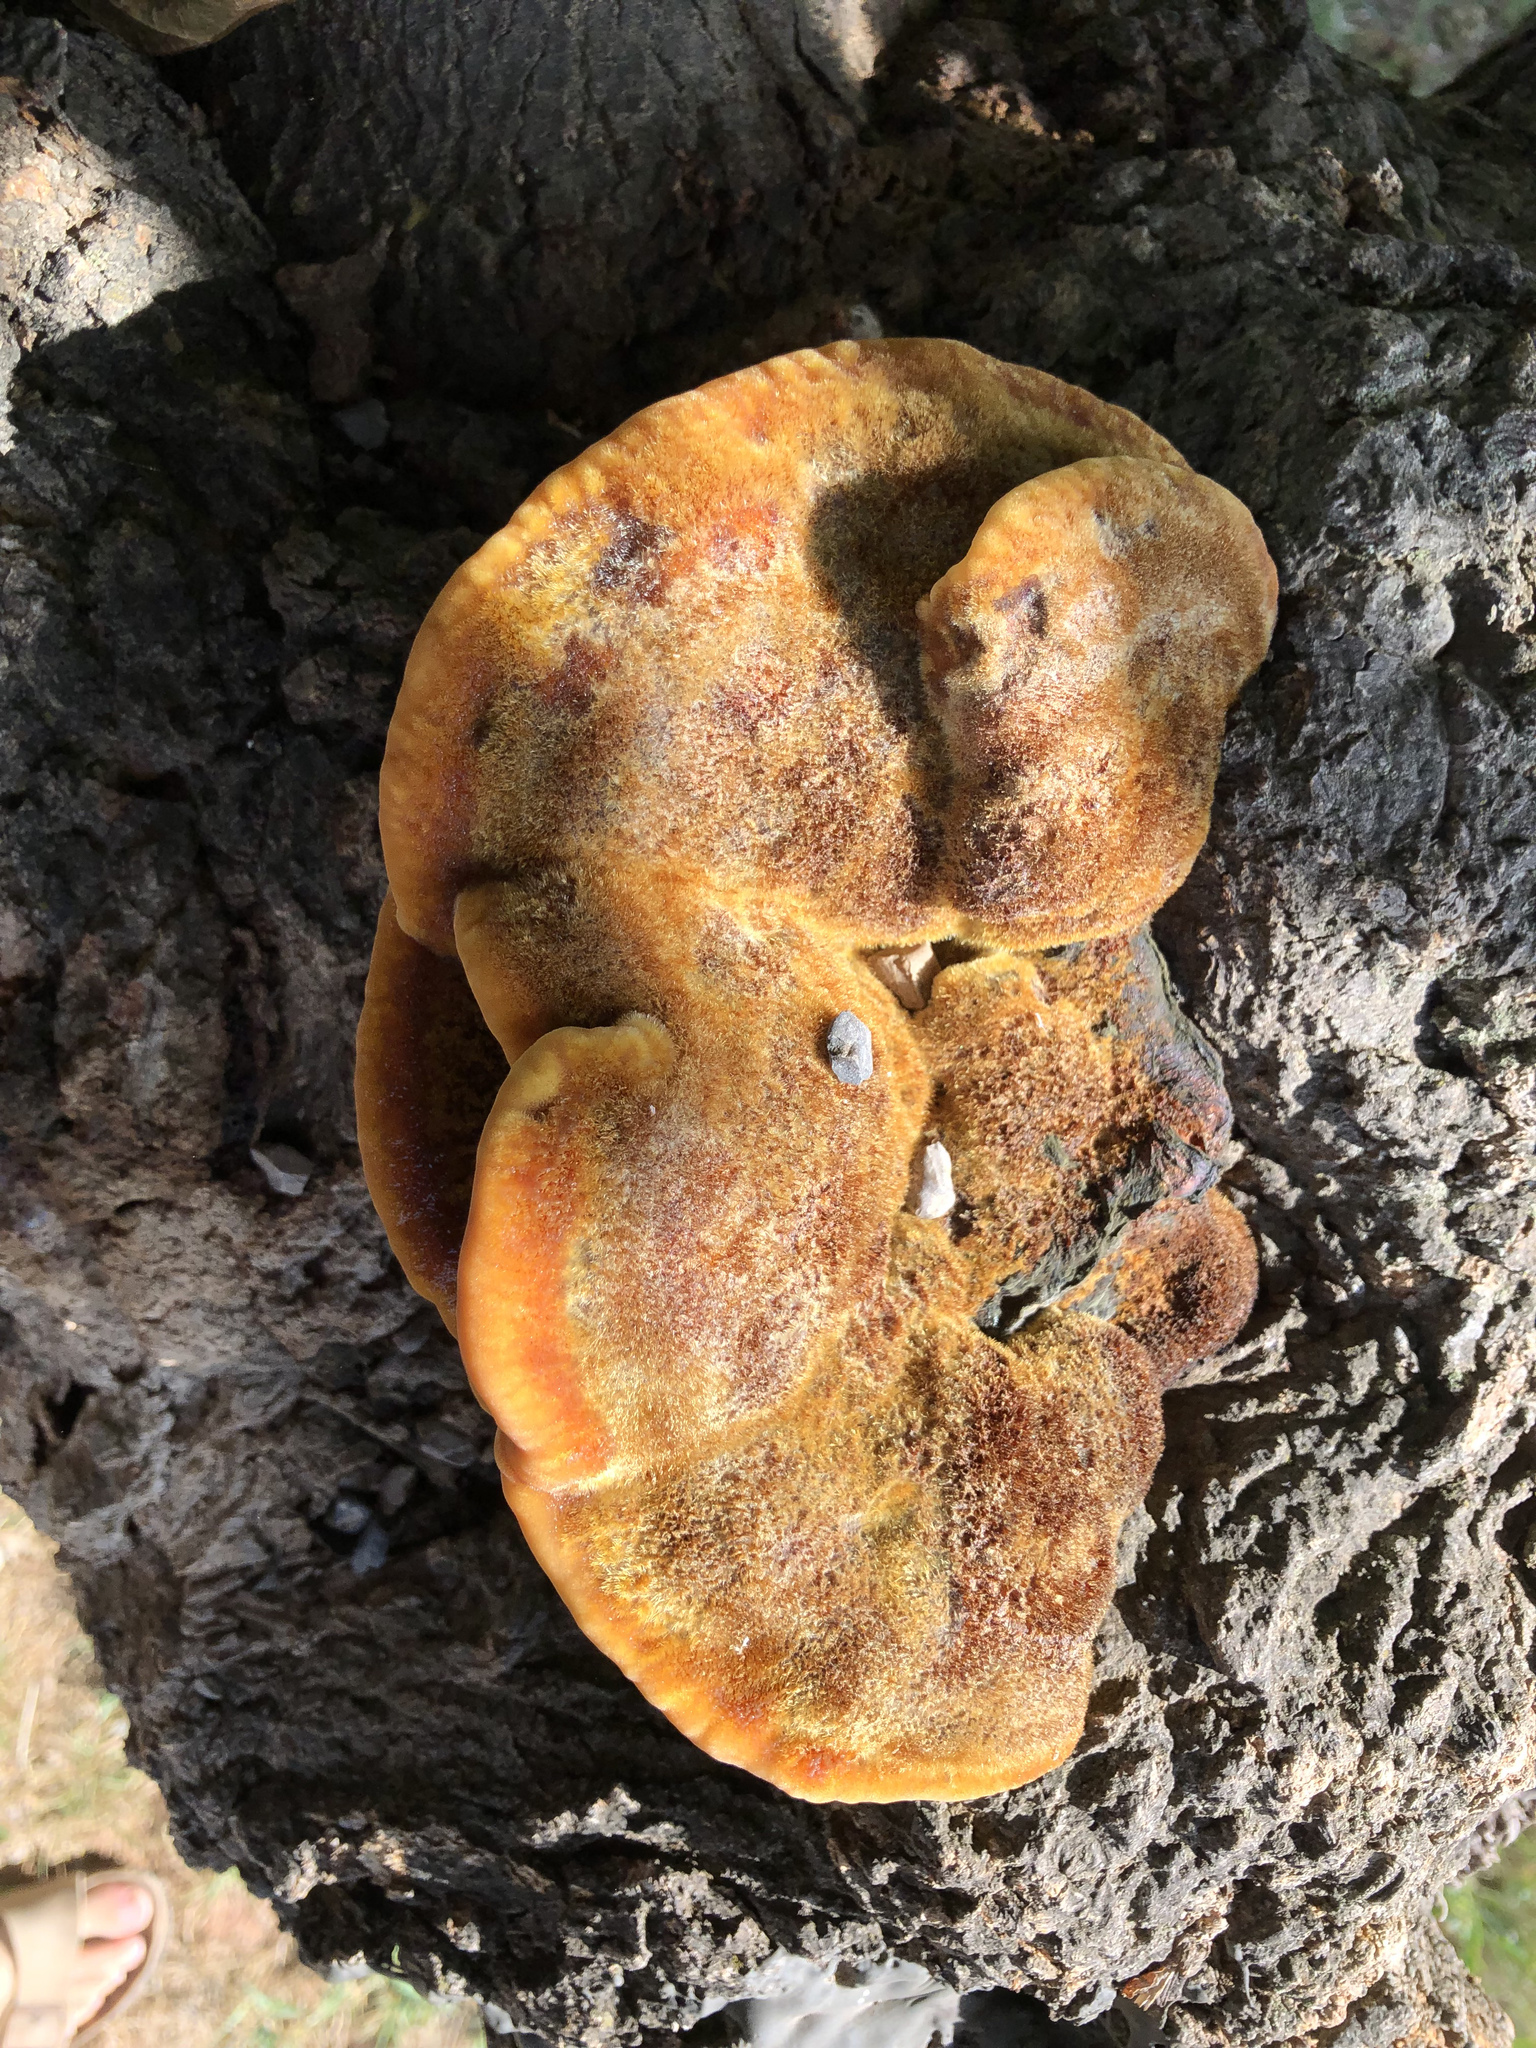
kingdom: Fungi
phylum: Basidiomycota
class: Agaricomycetes
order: Hymenochaetales
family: Hymenochaetaceae
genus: Inonotus
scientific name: Inonotus hispidus
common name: Shaggy bracket
